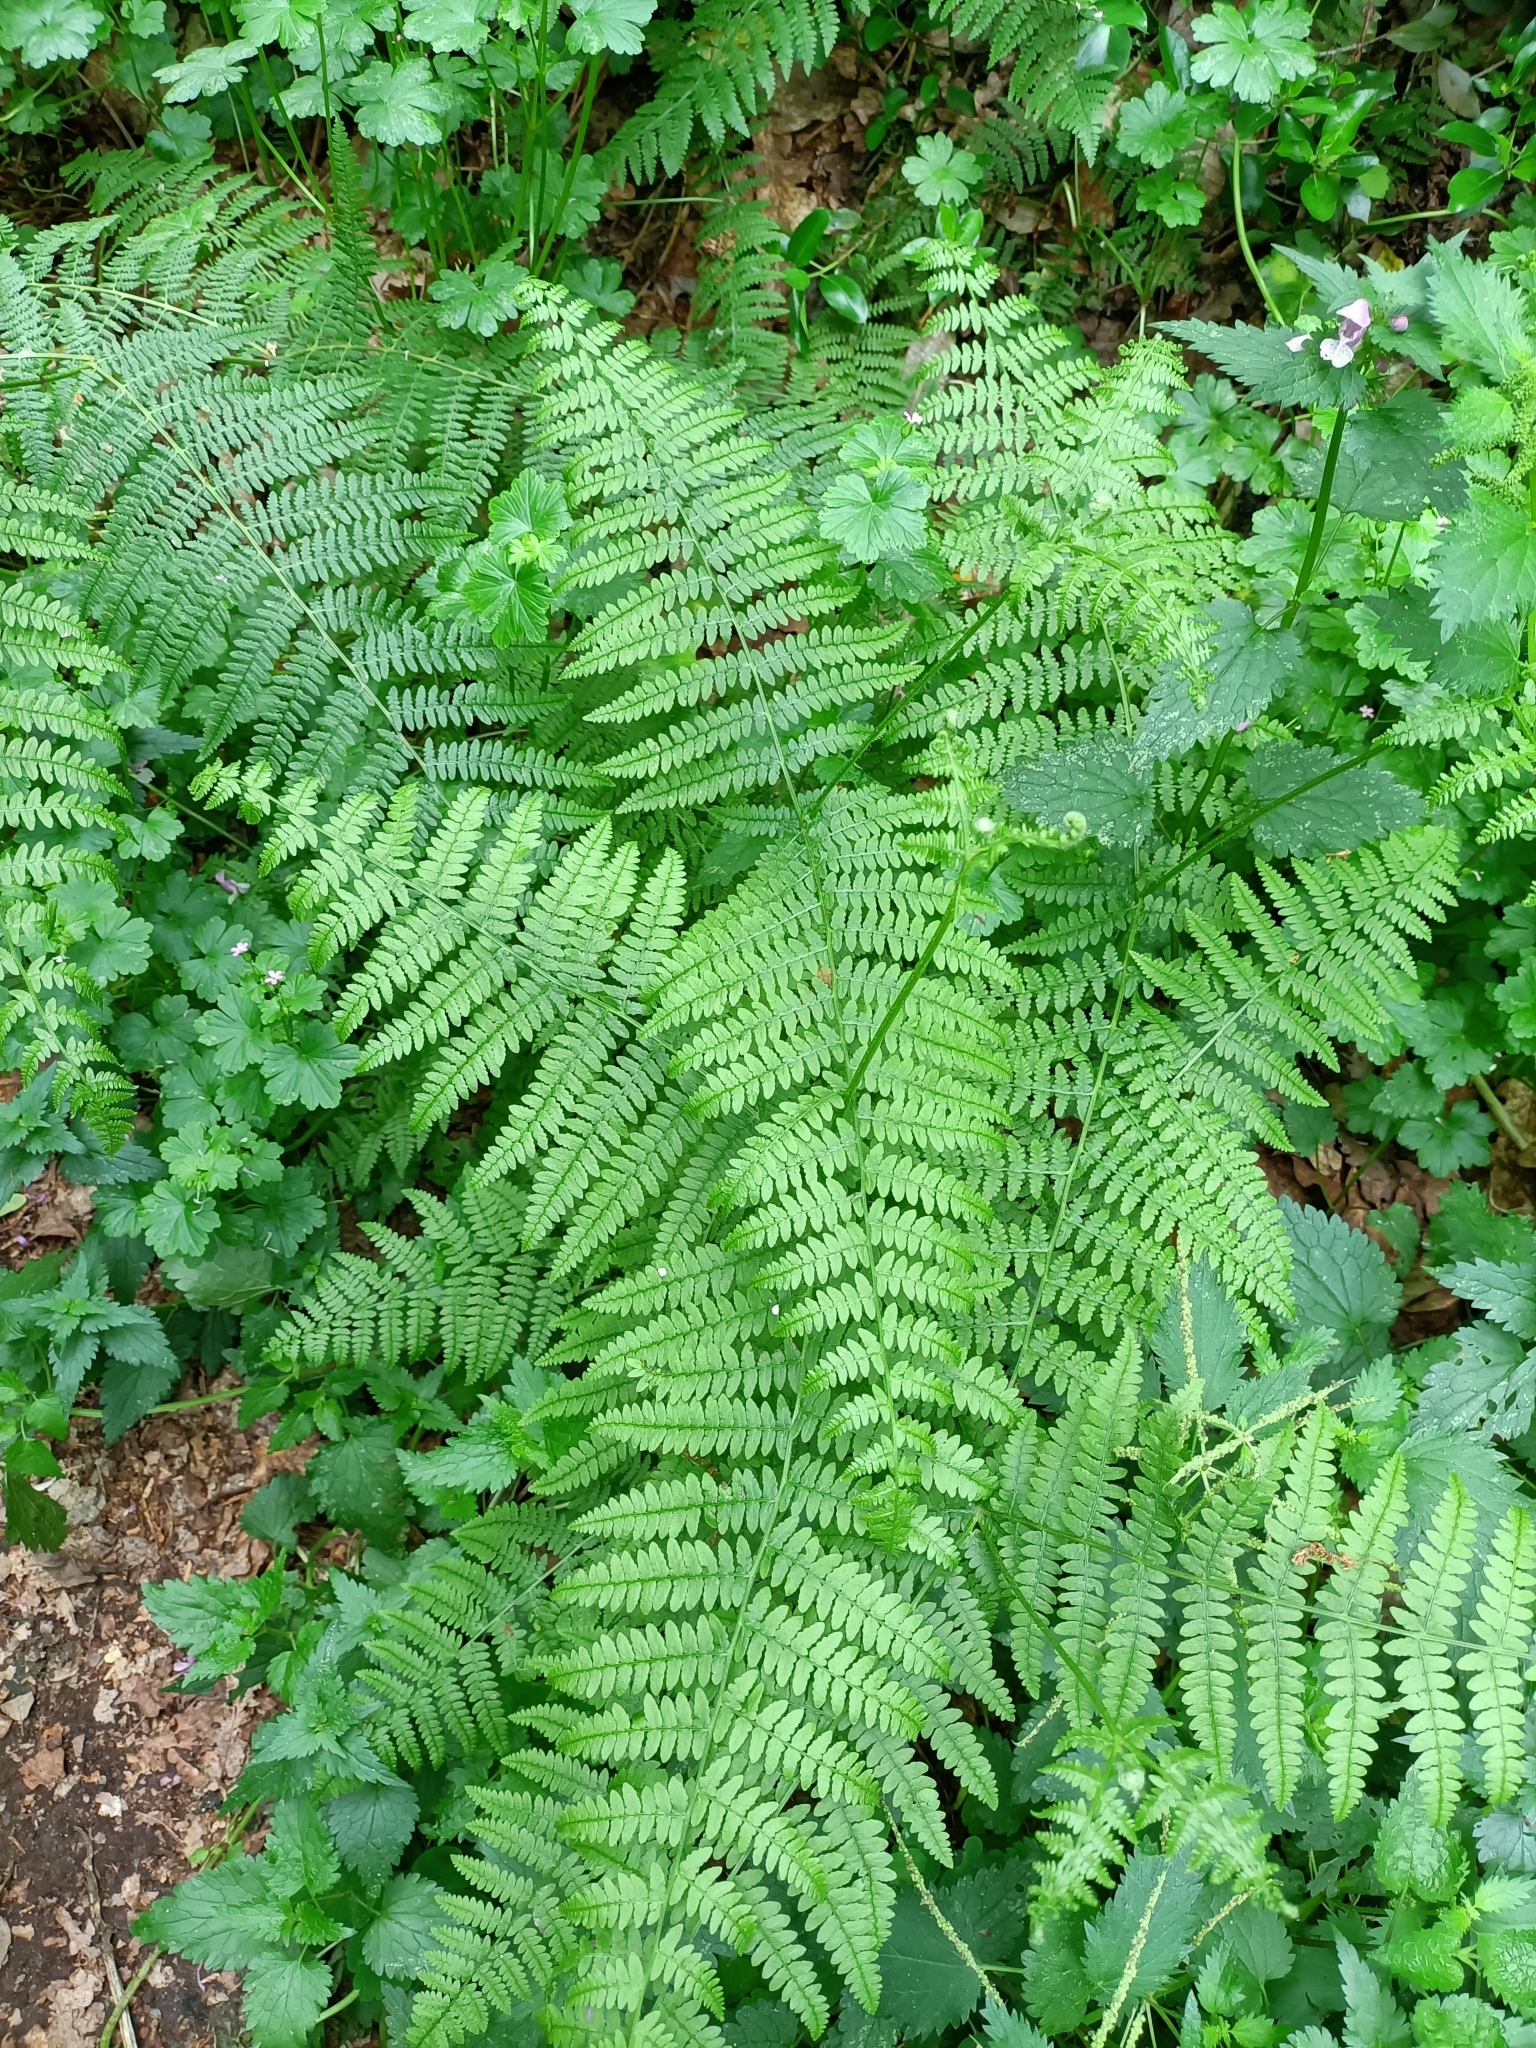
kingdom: Plantae
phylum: Tracheophyta
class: Polypodiopsida
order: Polypodiales
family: Dennstaedtiaceae
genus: Pteridium
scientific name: Pteridium aquilinum
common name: Bracken
